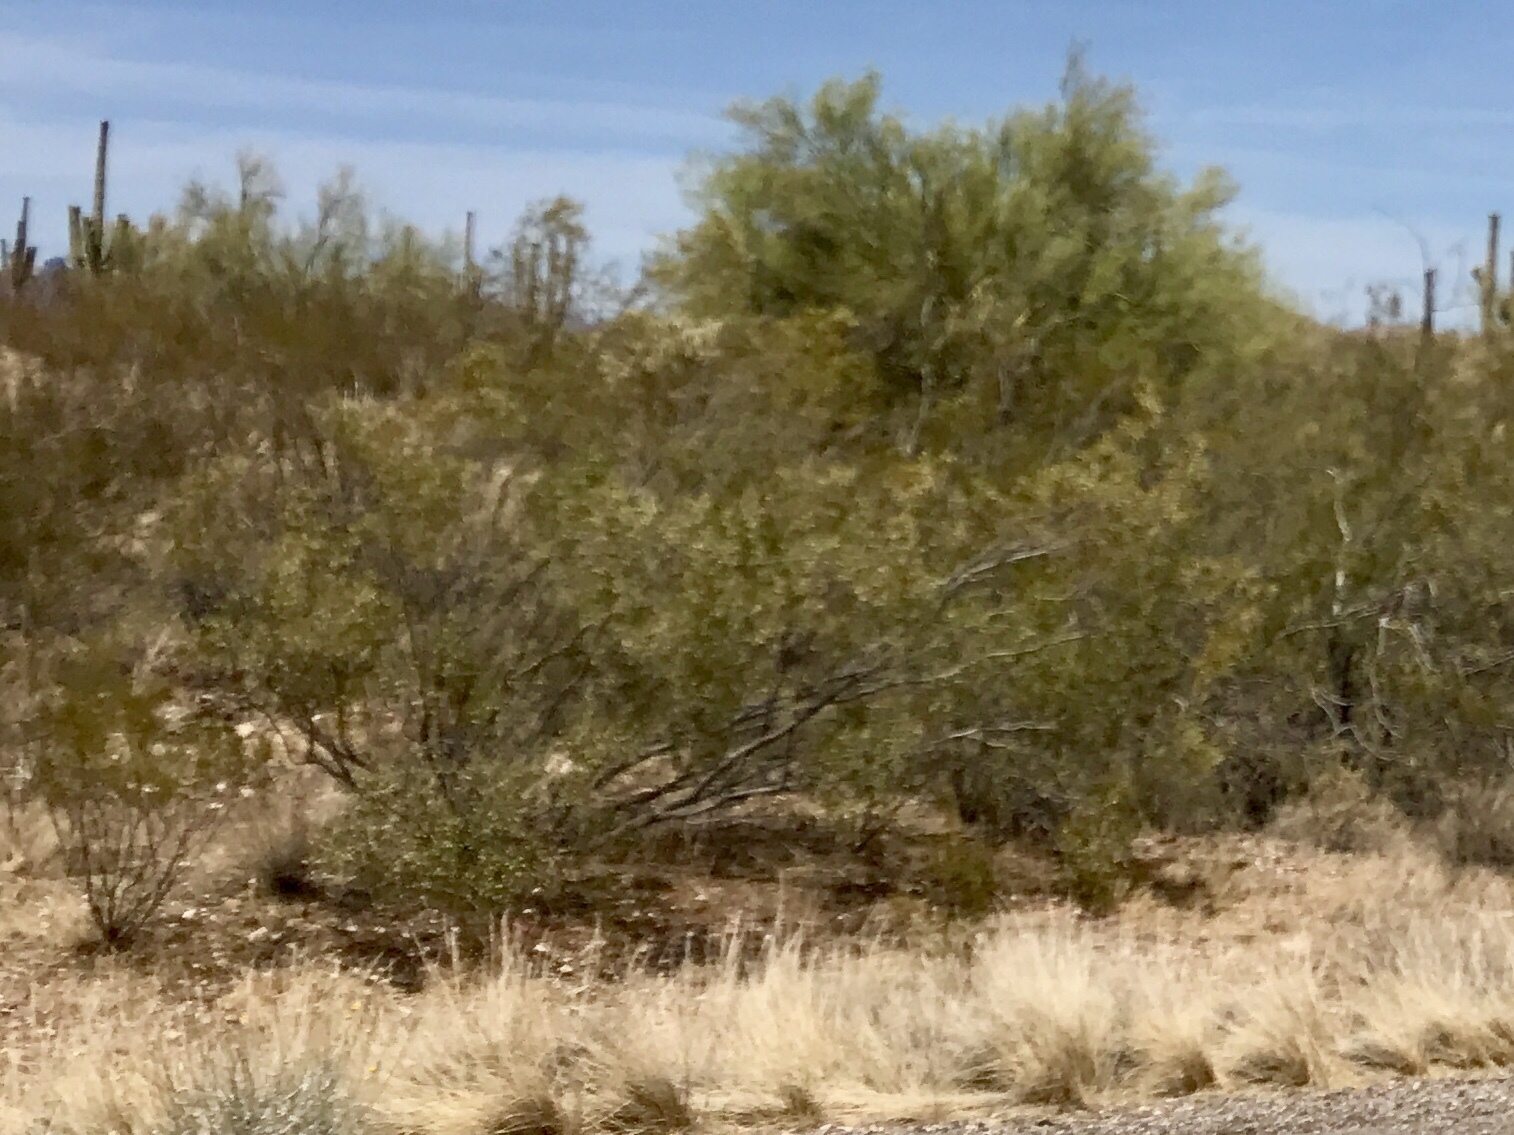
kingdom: Plantae
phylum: Tracheophyta
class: Magnoliopsida
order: Zygophyllales
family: Zygophyllaceae
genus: Larrea
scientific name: Larrea tridentata
